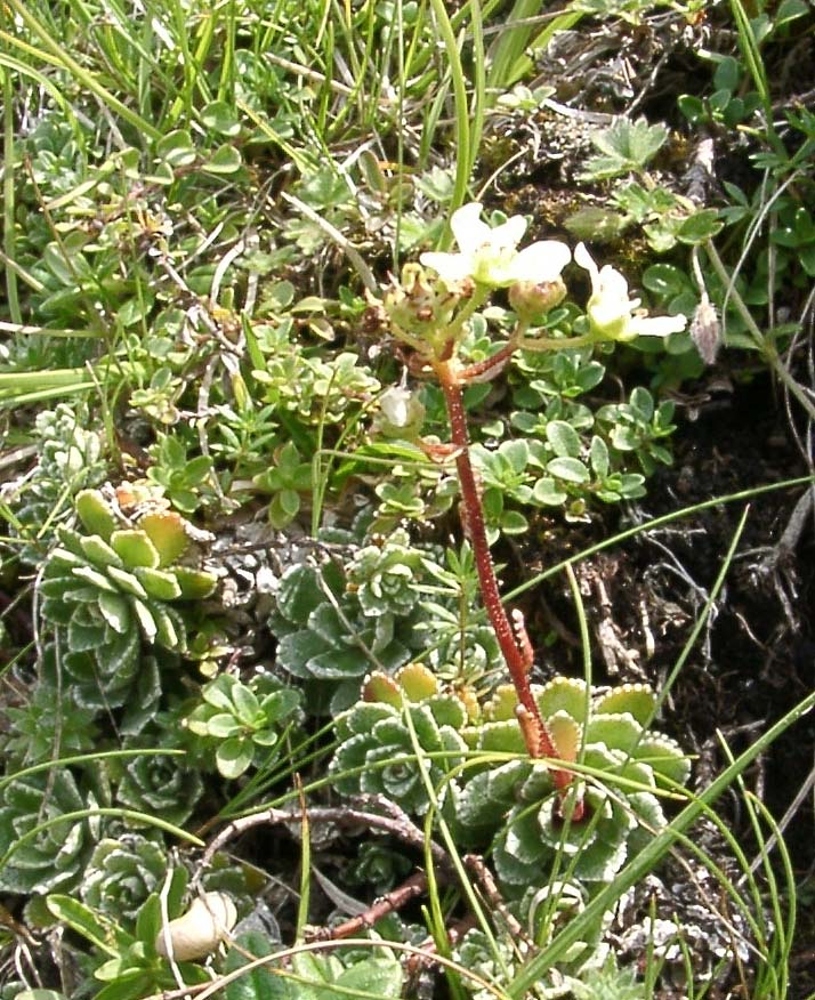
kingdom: Plantae
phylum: Tracheophyta
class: Magnoliopsida
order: Saxifragales
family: Saxifragaceae
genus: Saxifraga
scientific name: Saxifraga paniculata
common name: Livelong saxifrage
